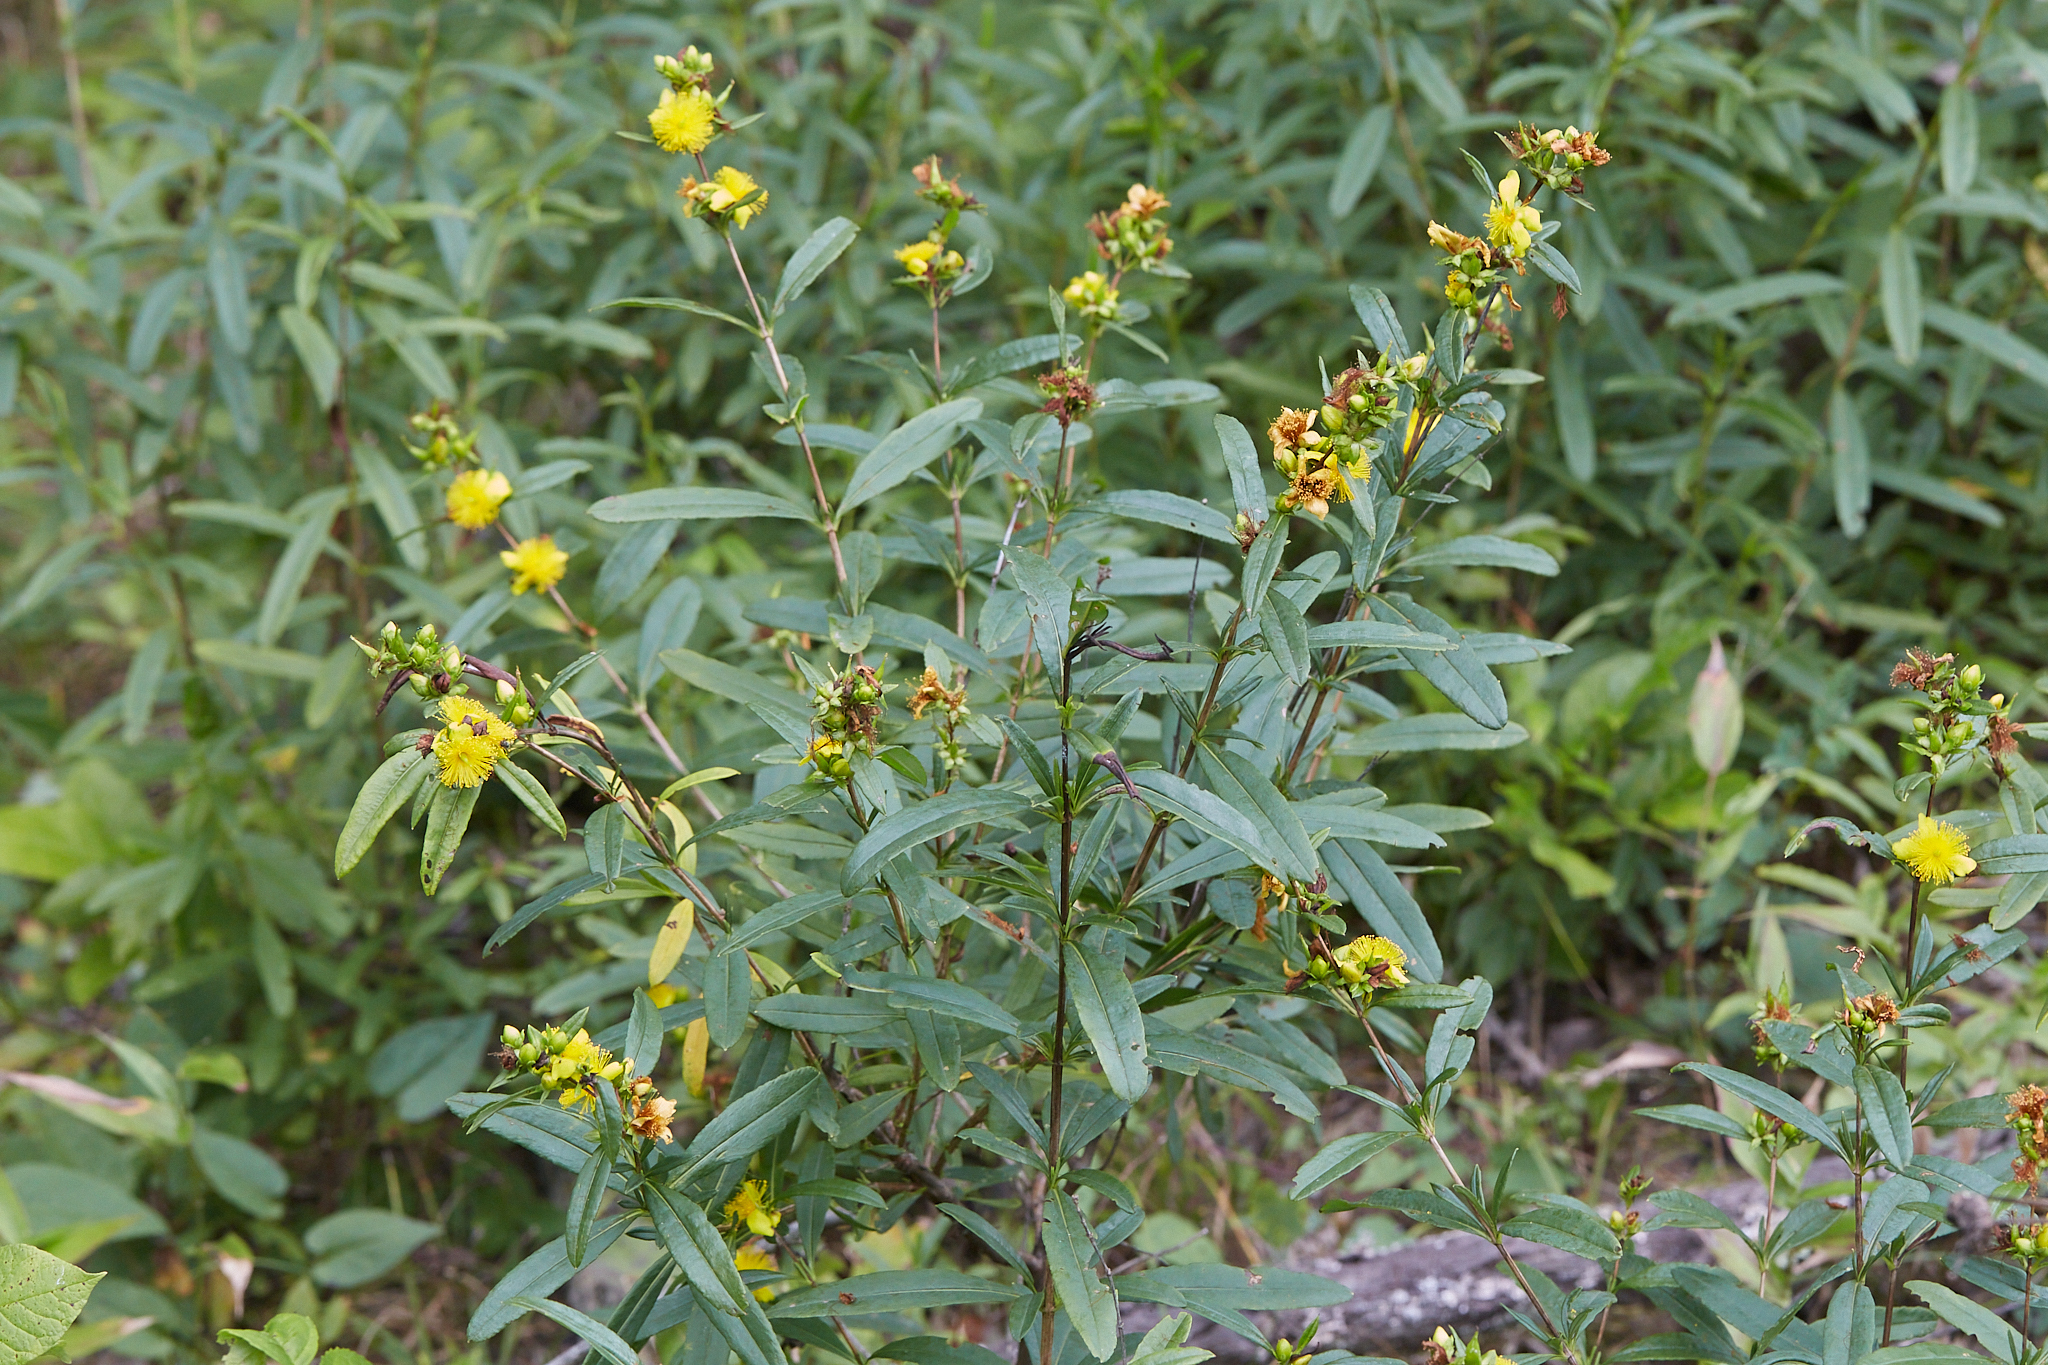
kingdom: Plantae
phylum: Tracheophyta
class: Magnoliopsida
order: Malpighiales
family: Hypericaceae
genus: Hypericum
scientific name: Hypericum prolificum
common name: Shrubby st. john's-wort
